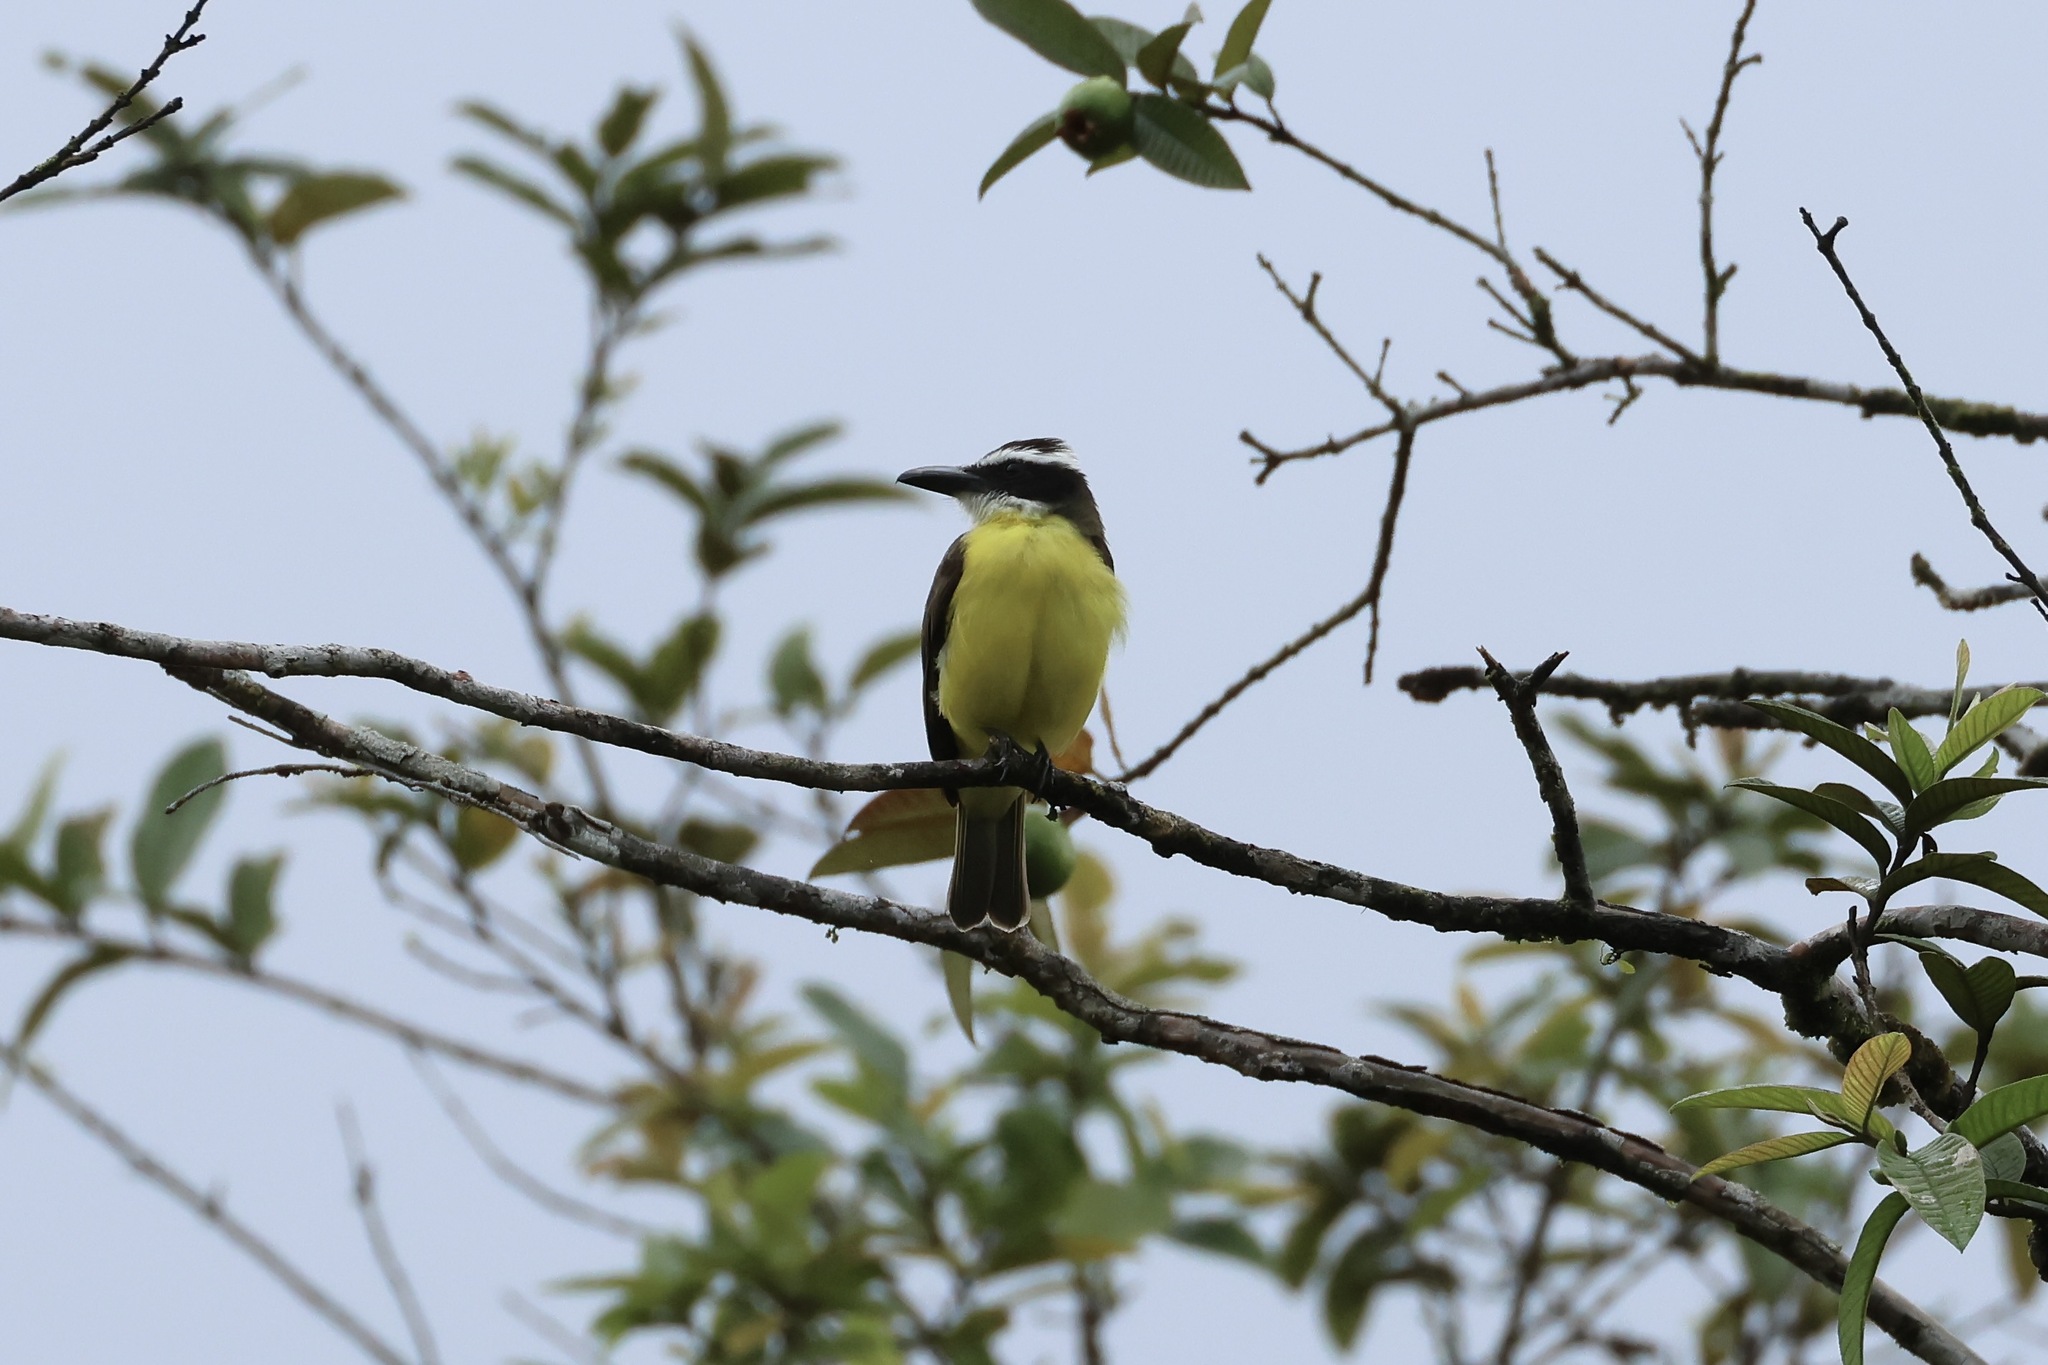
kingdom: Animalia
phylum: Chordata
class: Aves
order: Passeriformes
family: Tyrannidae
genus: Megarynchus
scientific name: Megarynchus pitangua
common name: Boat-billed flycatcher
